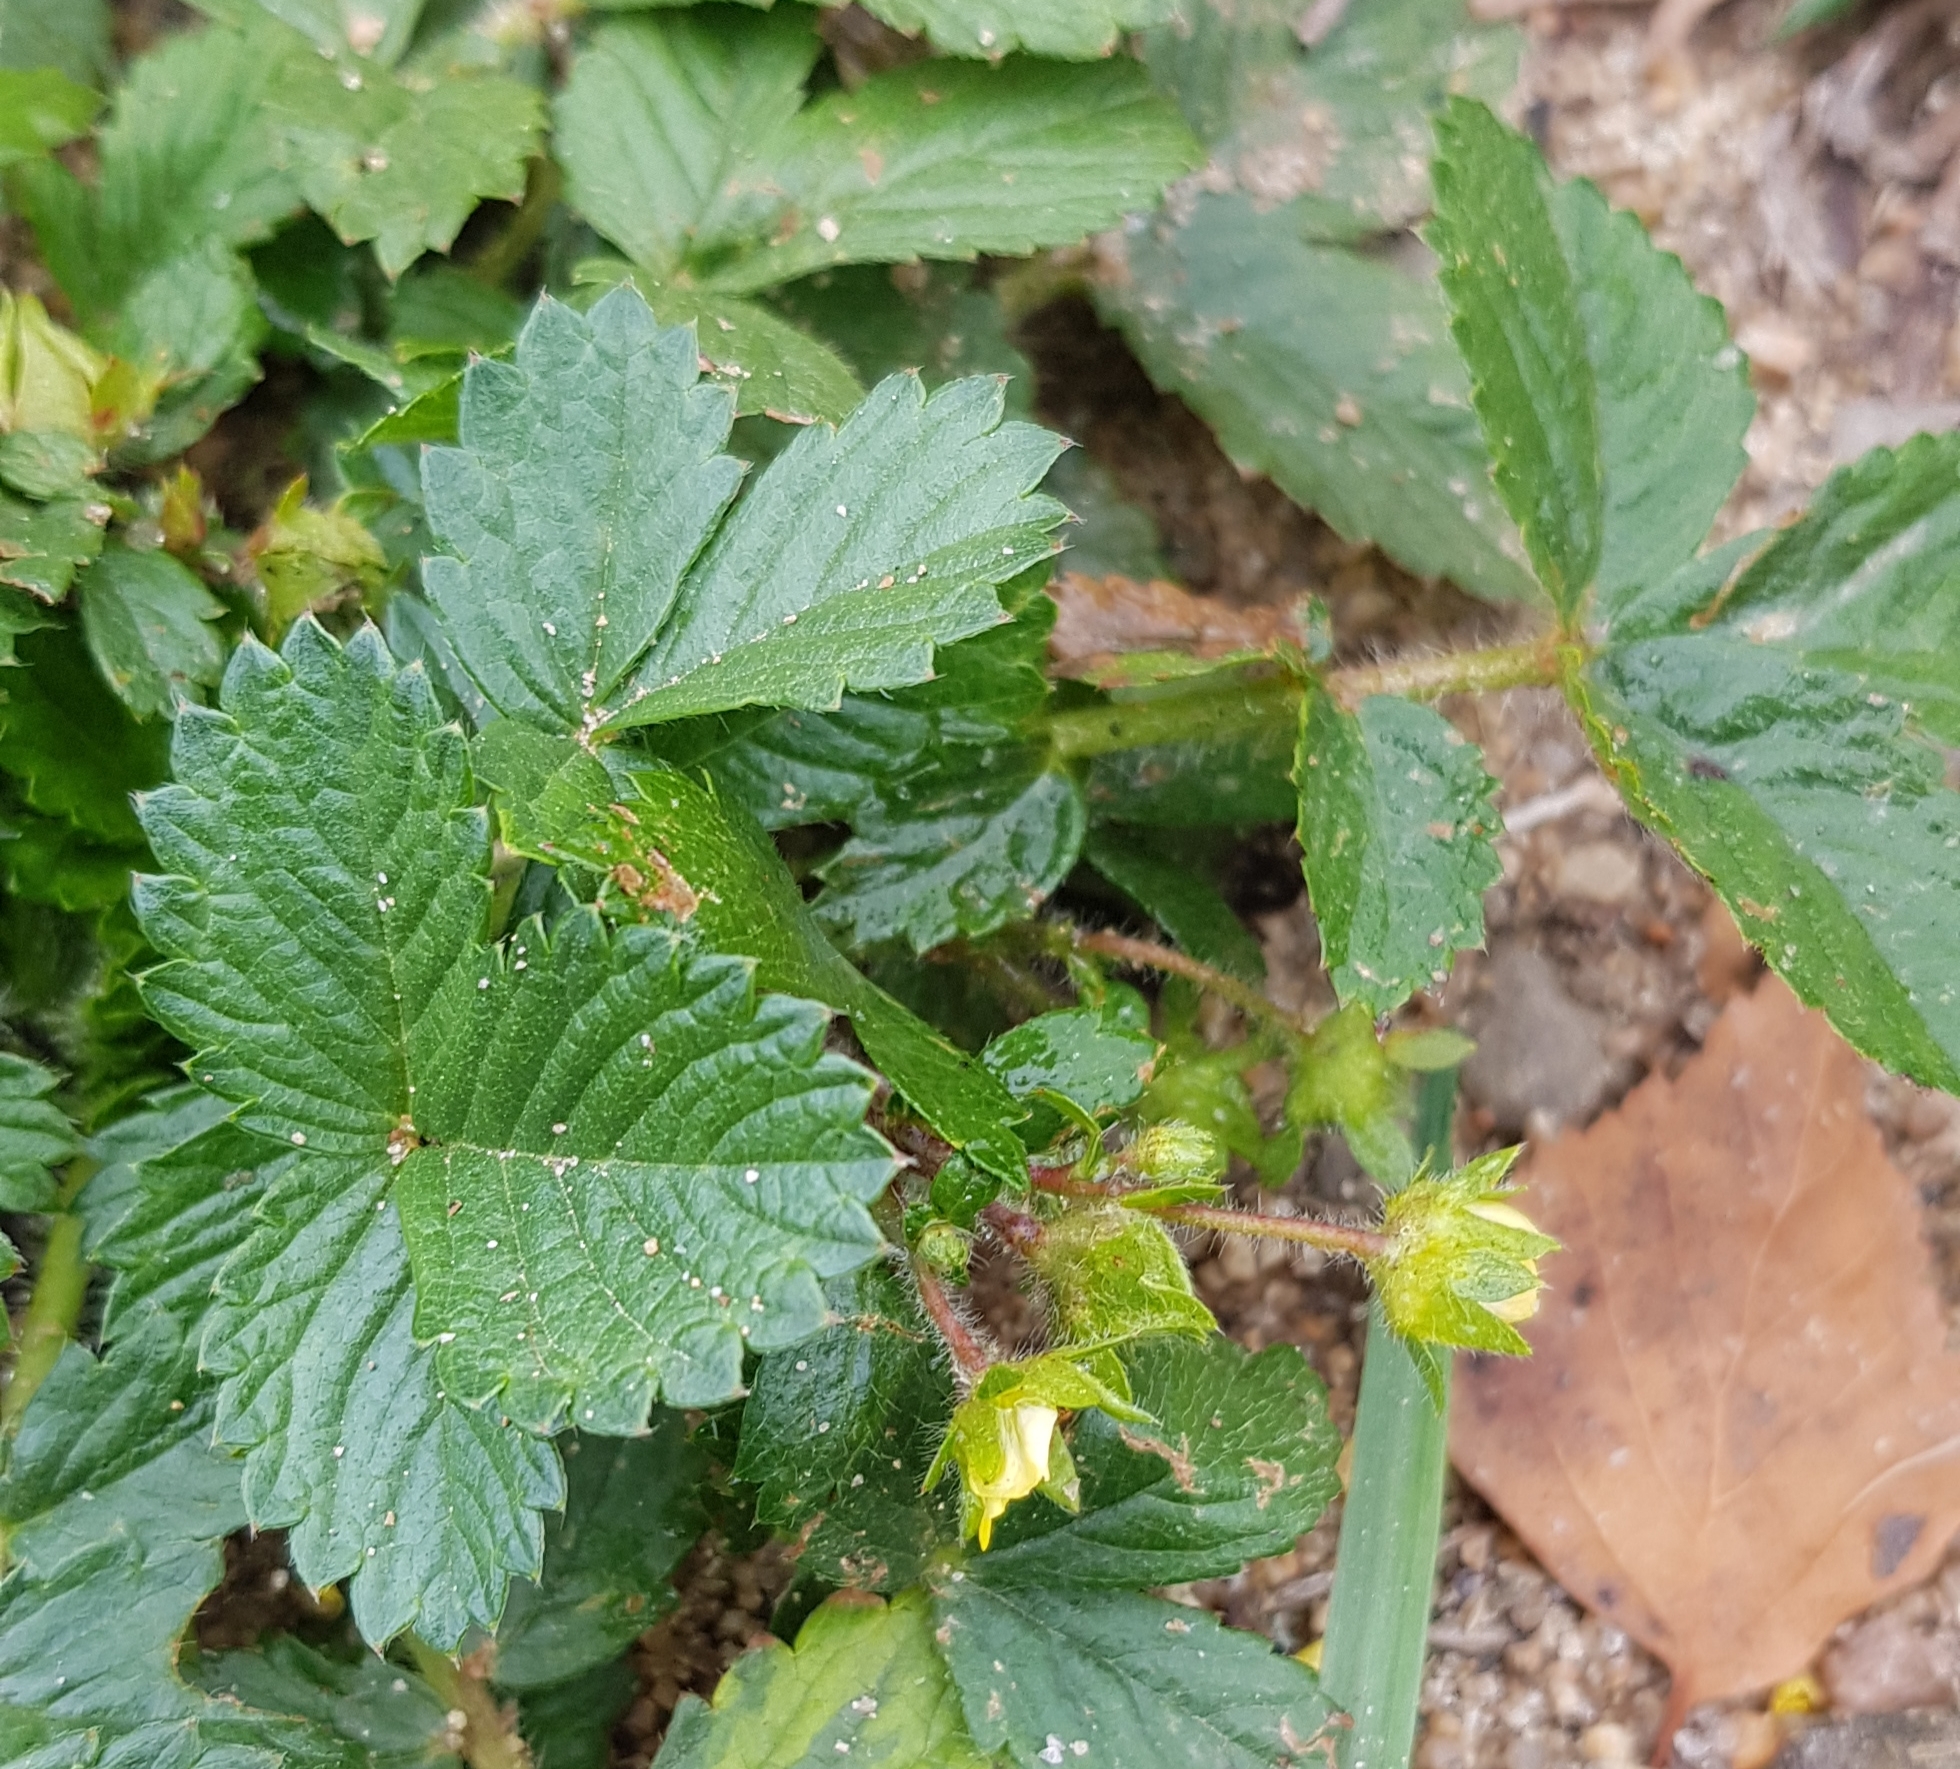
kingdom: Plantae
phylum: Tracheophyta
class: Magnoliopsida
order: Rosales
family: Rosaceae
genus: Potentilla
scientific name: Potentilla fragarioides
